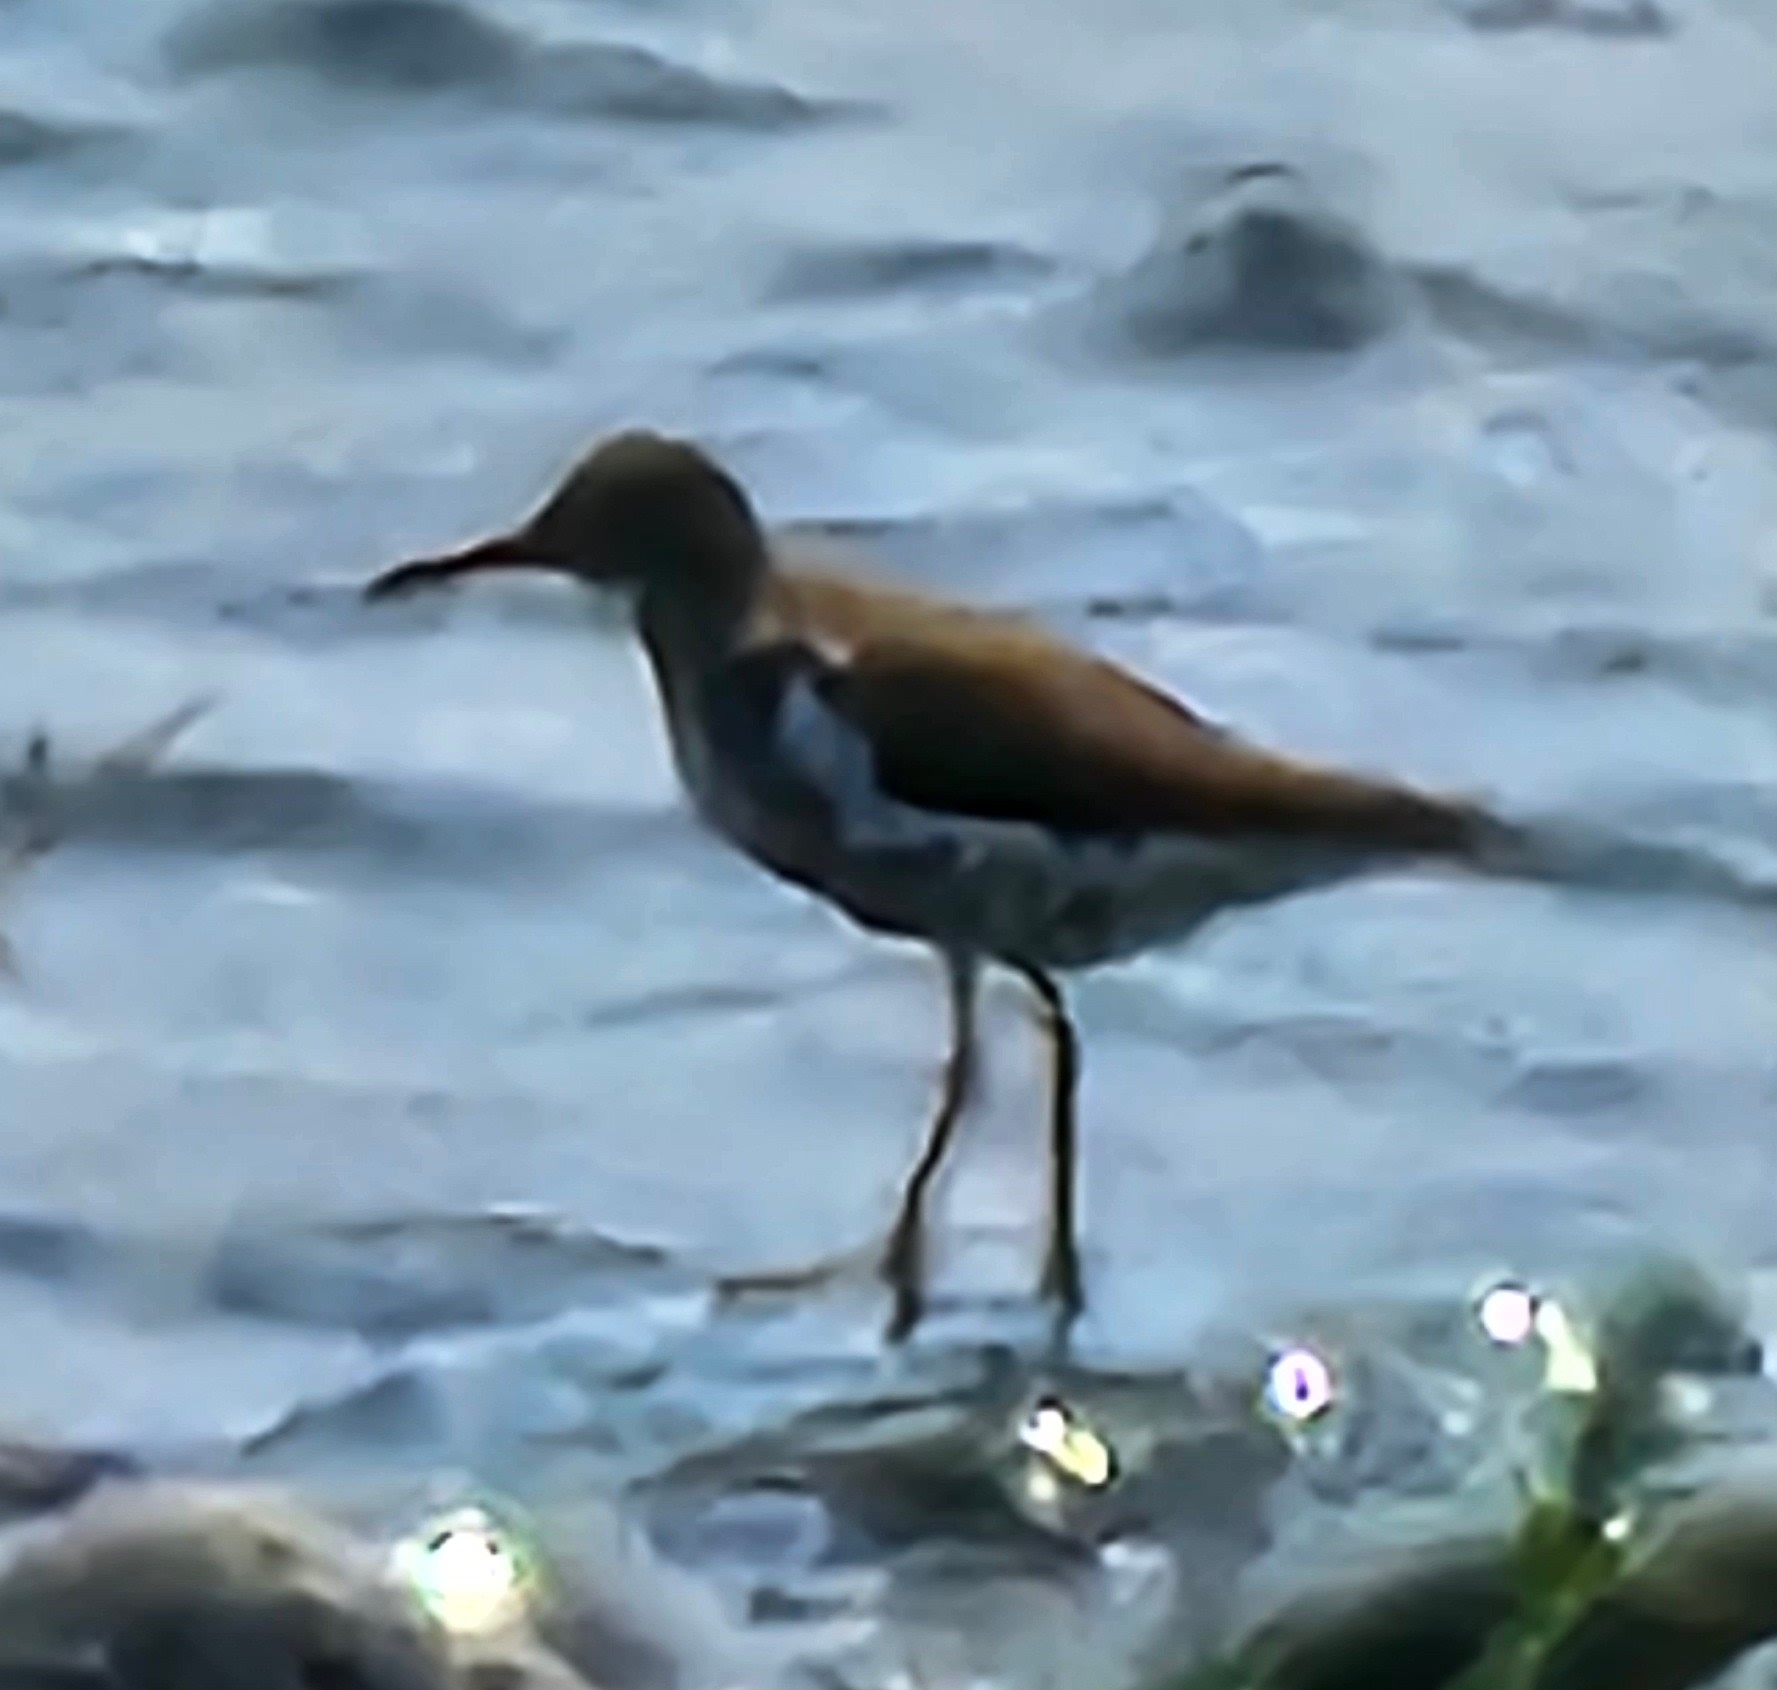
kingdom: Animalia
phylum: Chordata
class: Aves
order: Charadriiformes
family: Scolopacidae
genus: Actitis
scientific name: Actitis macularius
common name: Spotted sandpiper
